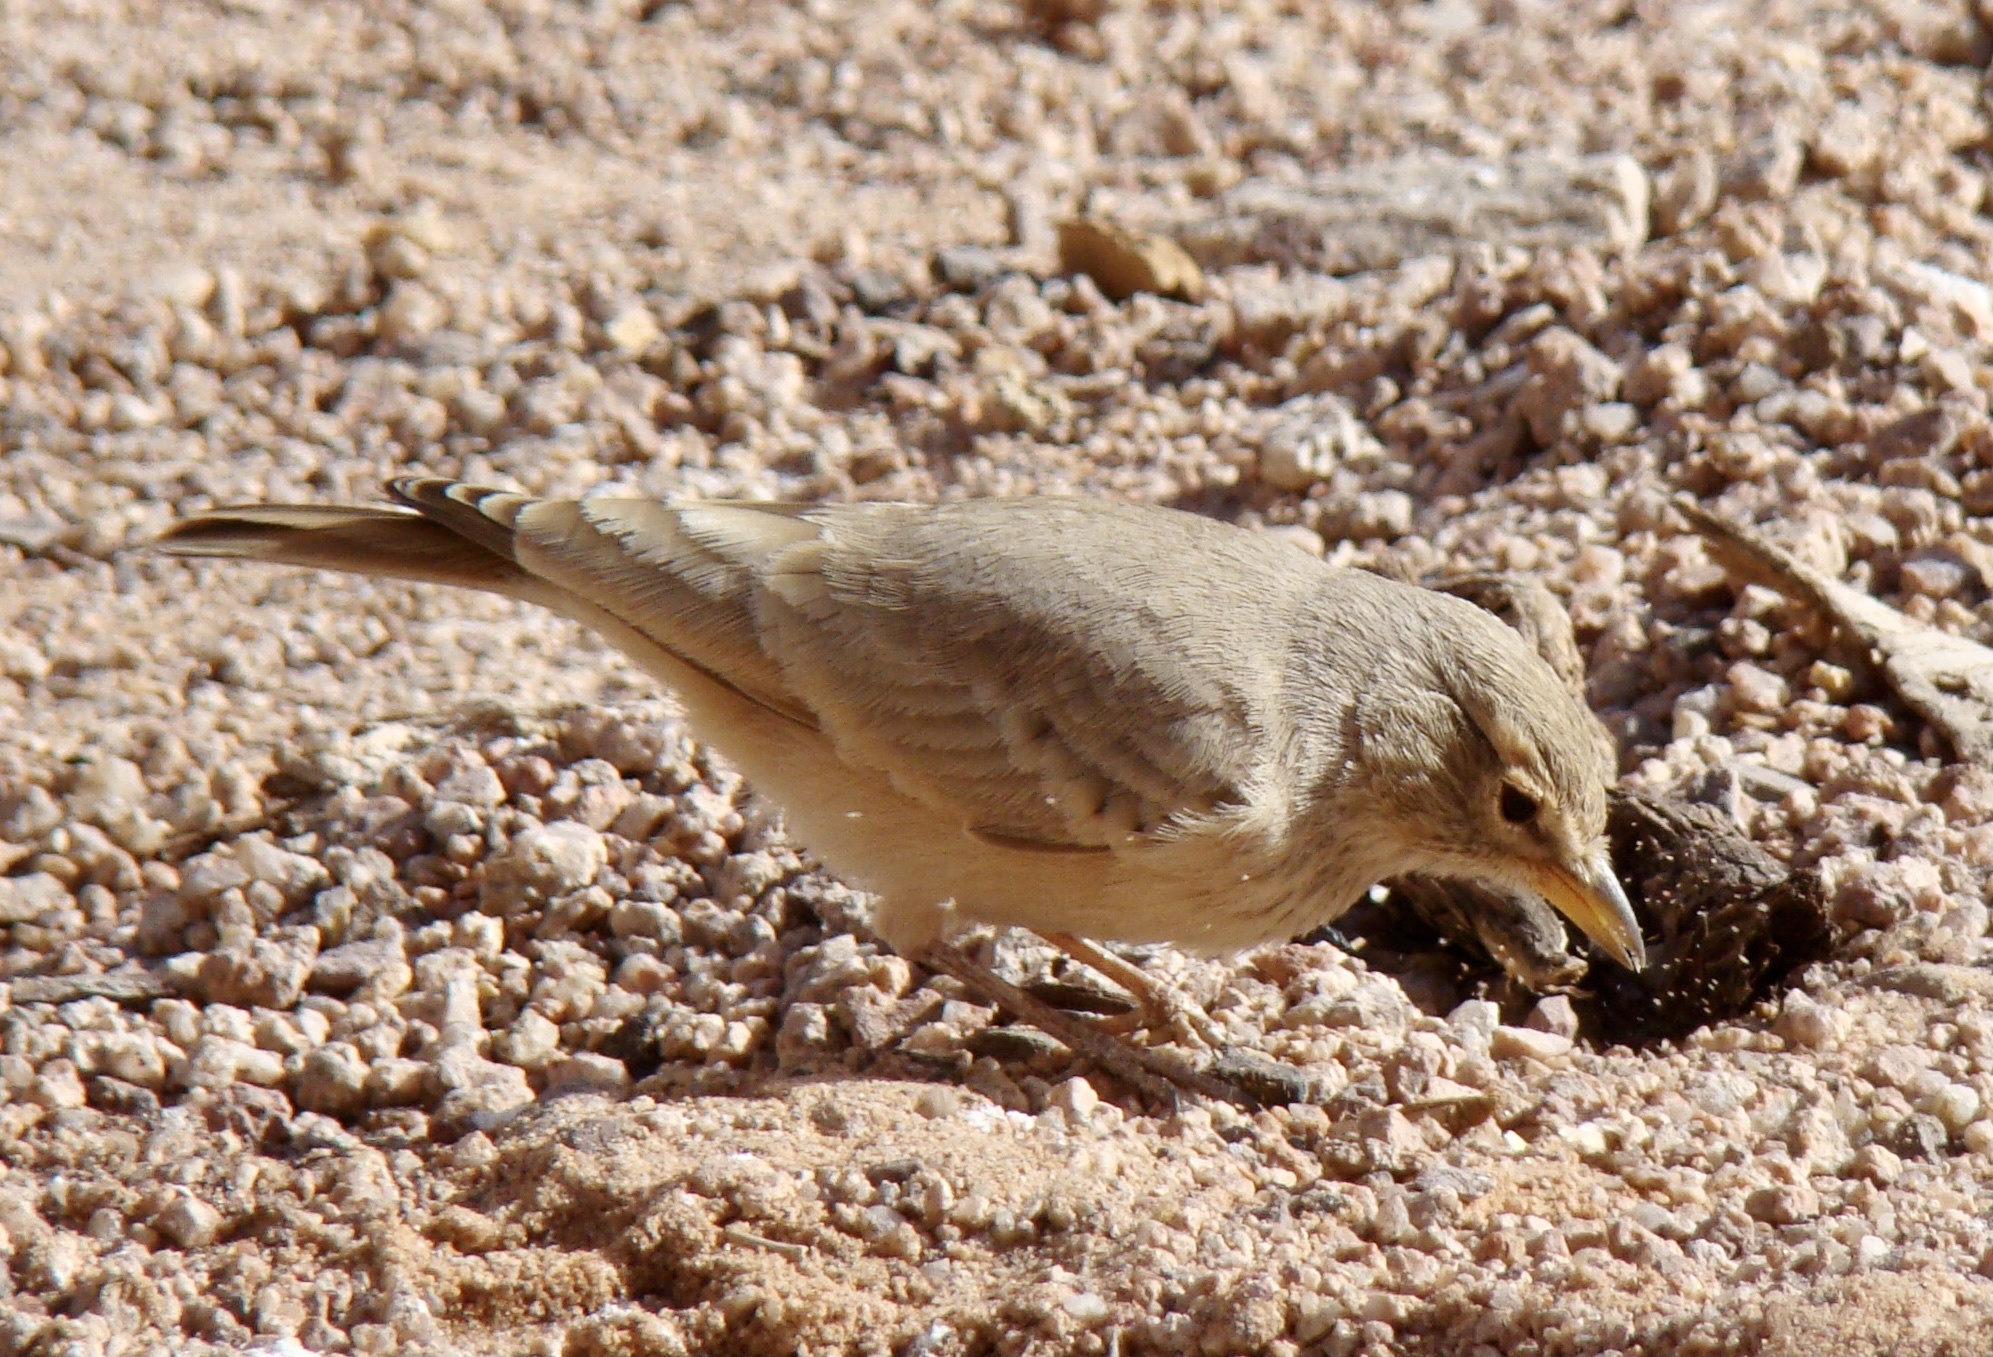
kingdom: Animalia
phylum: Chordata
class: Aves
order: Passeriformes
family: Alaudidae
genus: Ammomanes
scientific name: Ammomanes deserti
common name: Desert lark
